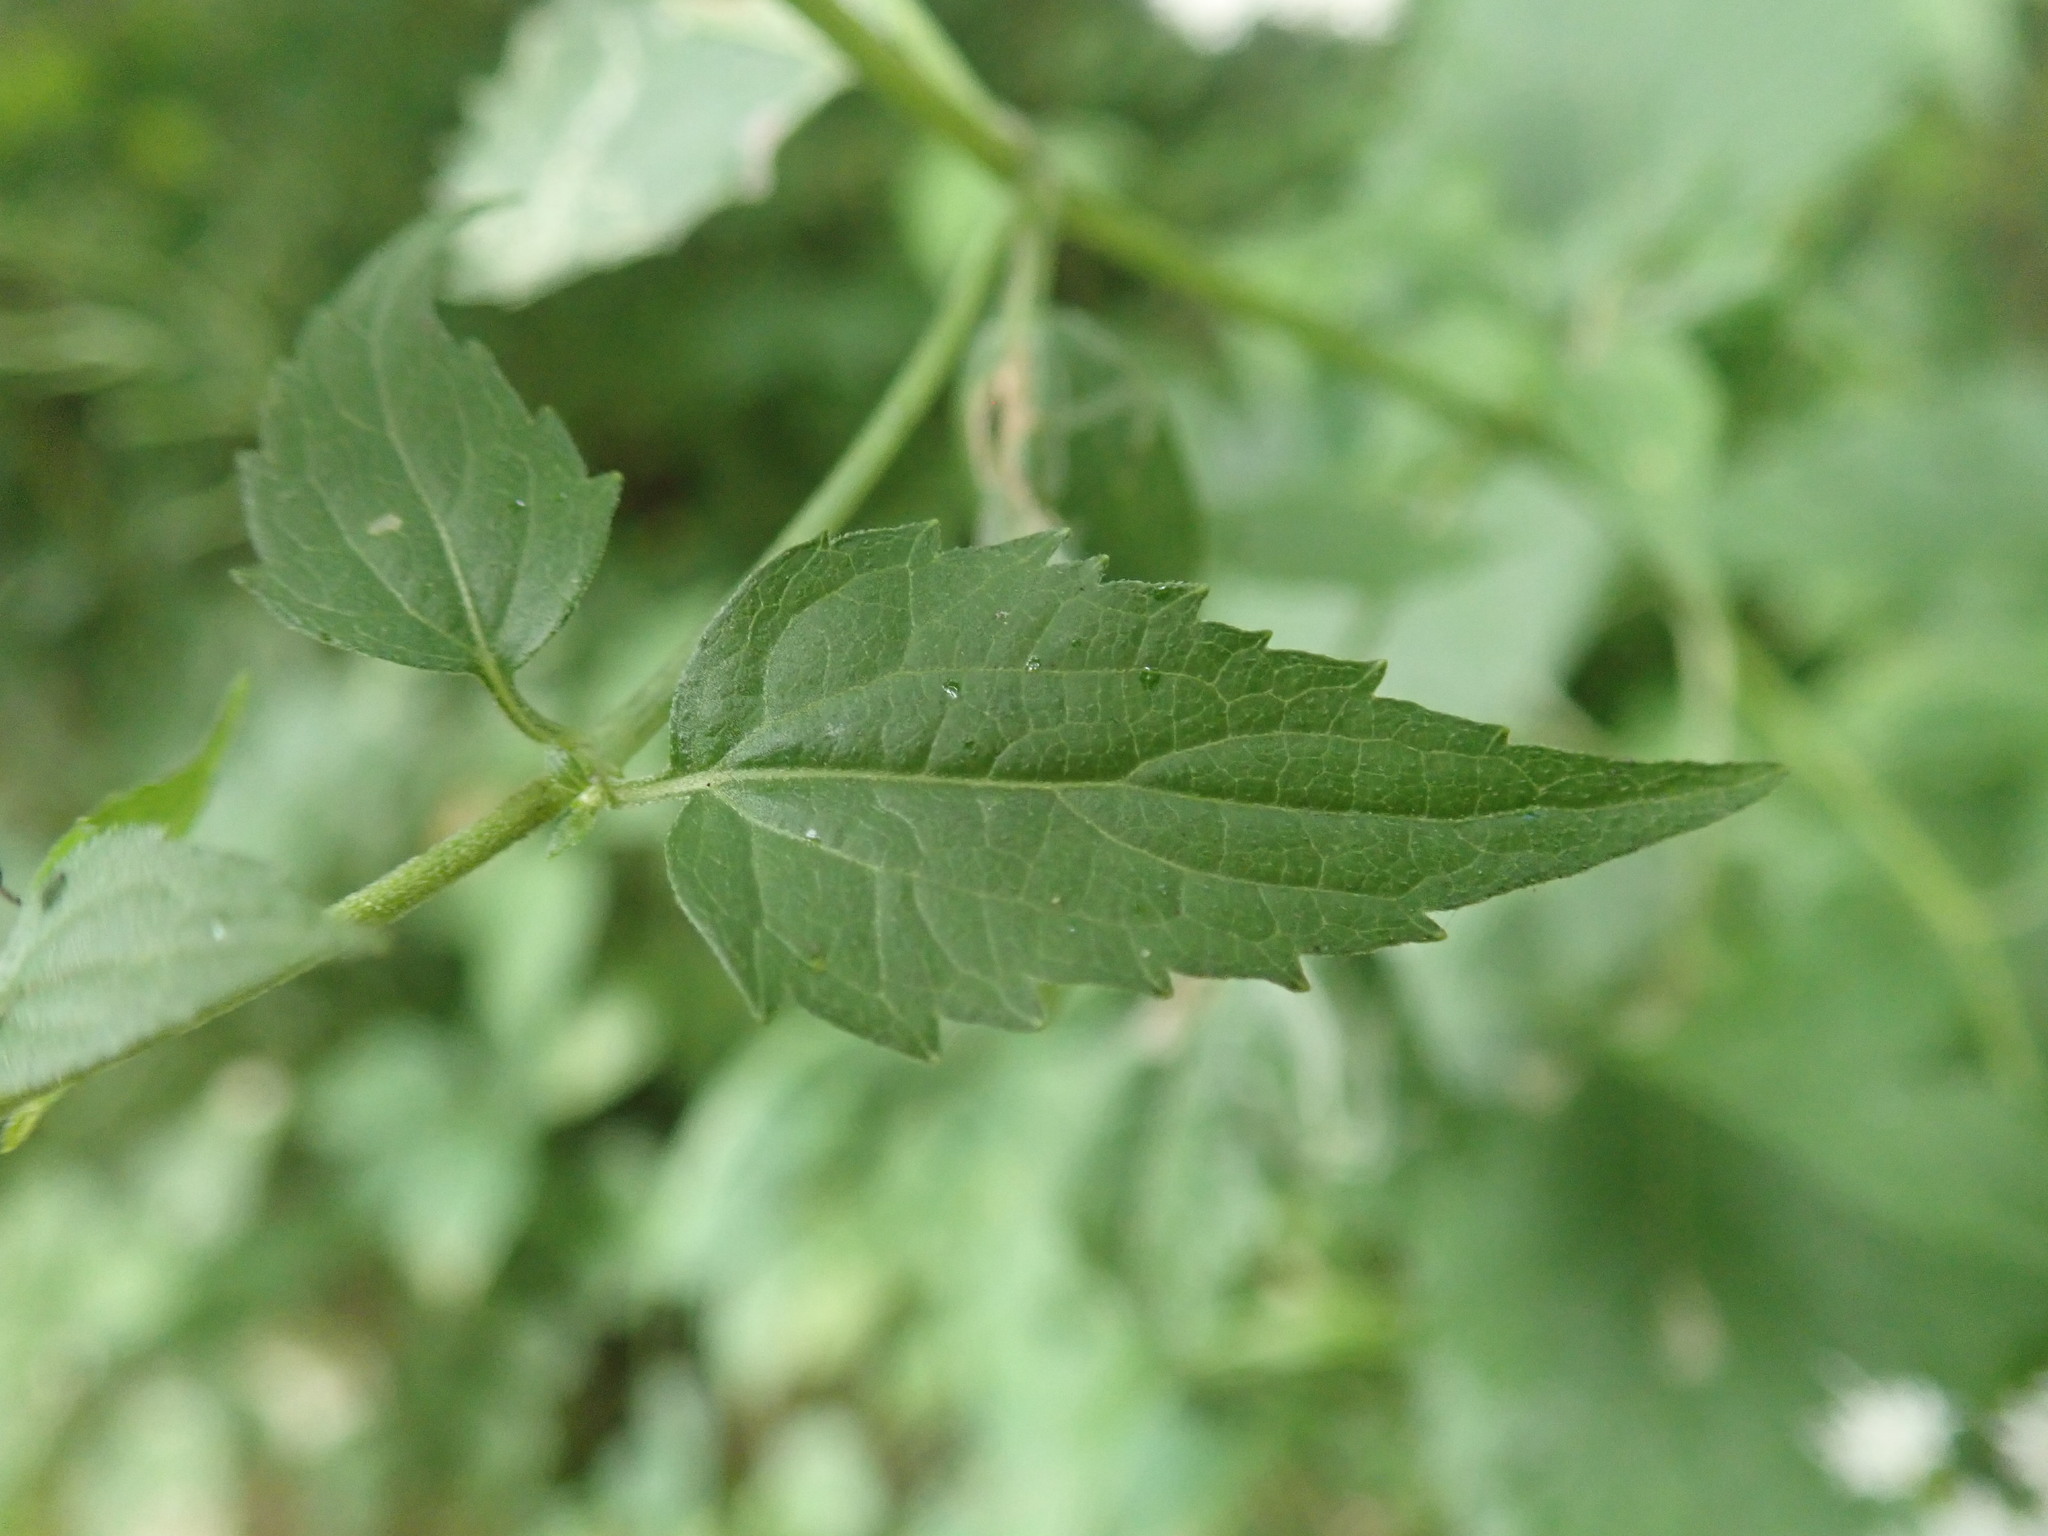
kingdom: Plantae
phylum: Tracheophyta
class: Magnoliopsida
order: Asterales
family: Asteraceae
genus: Ageratina
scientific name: Ageratina altissima
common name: White snakeroot
